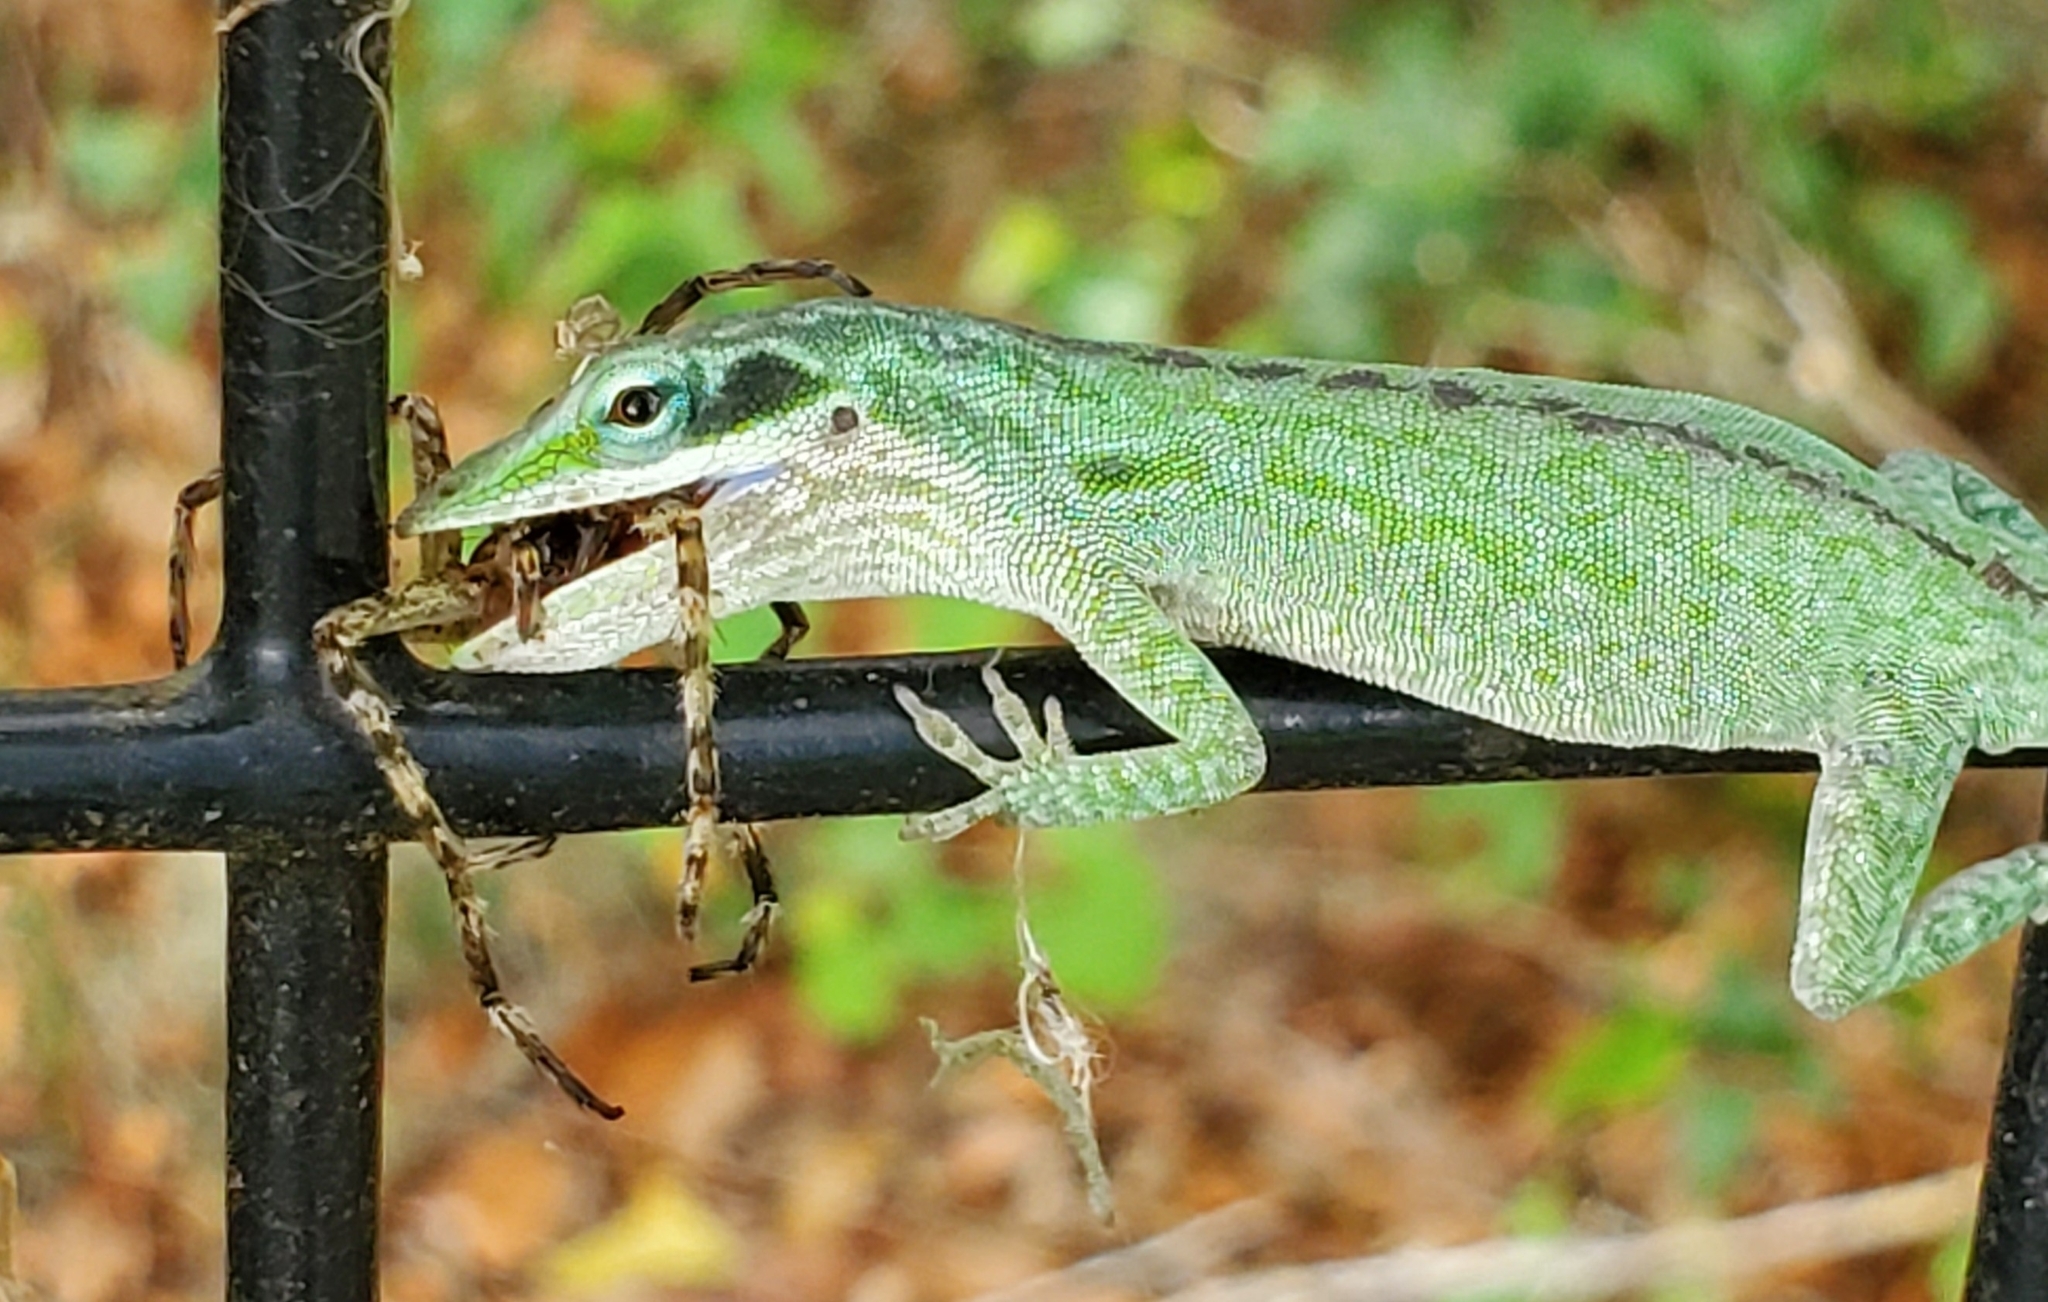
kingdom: Animalia
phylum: Chordata
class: Squamata
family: Dactyloidae
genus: Anolis
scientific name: Anolis carolinensis
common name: Green anole
